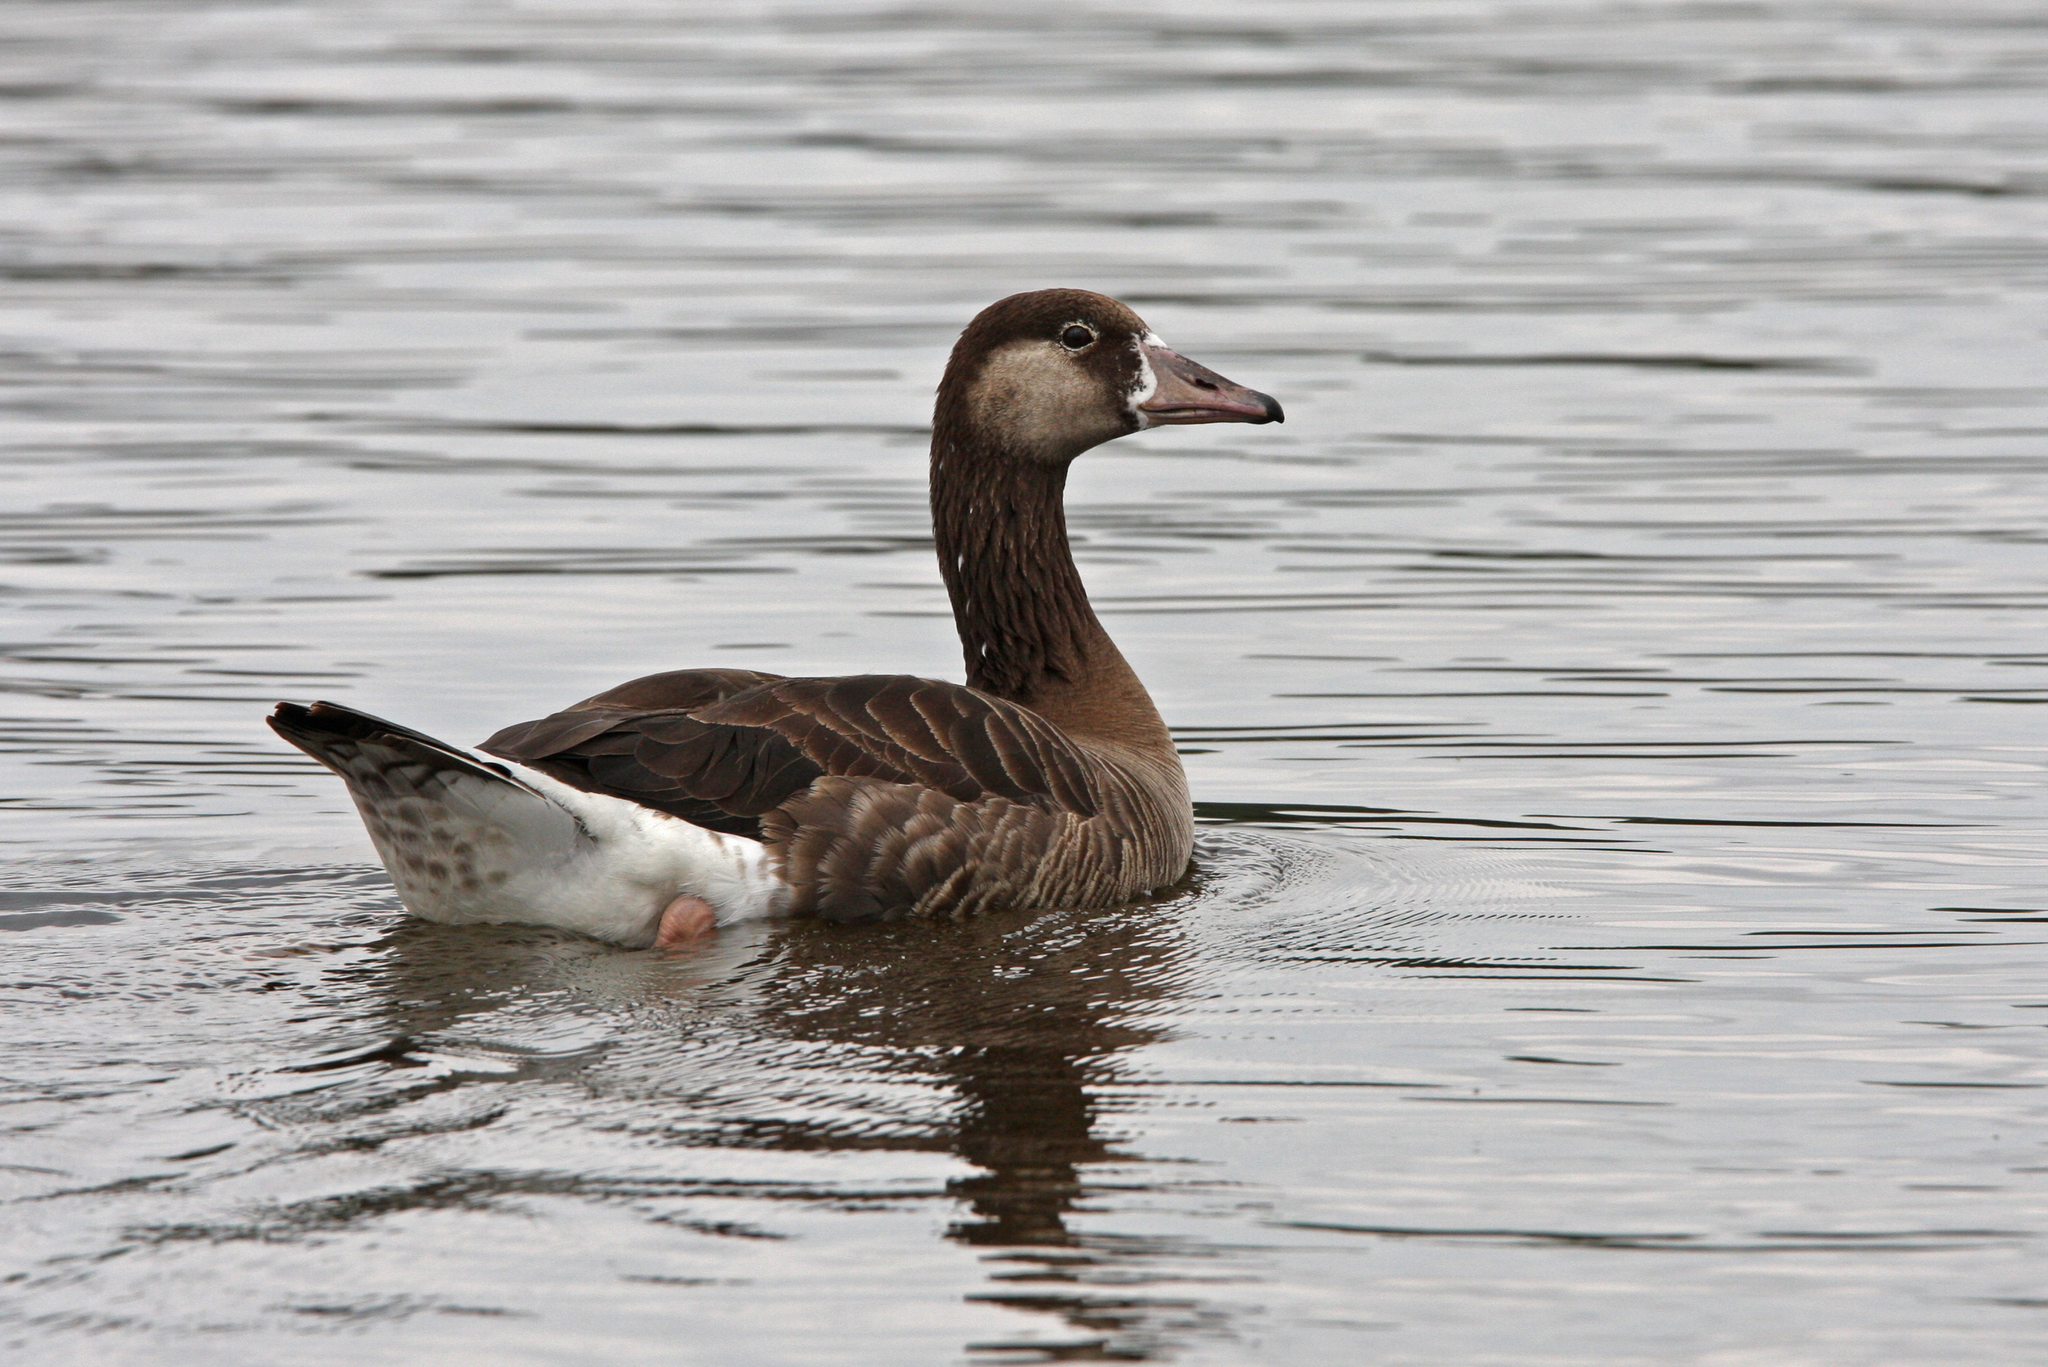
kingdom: Animalia
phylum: Chordata
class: Aves
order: Anseriformes
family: Anatidae
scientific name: Anatidae
